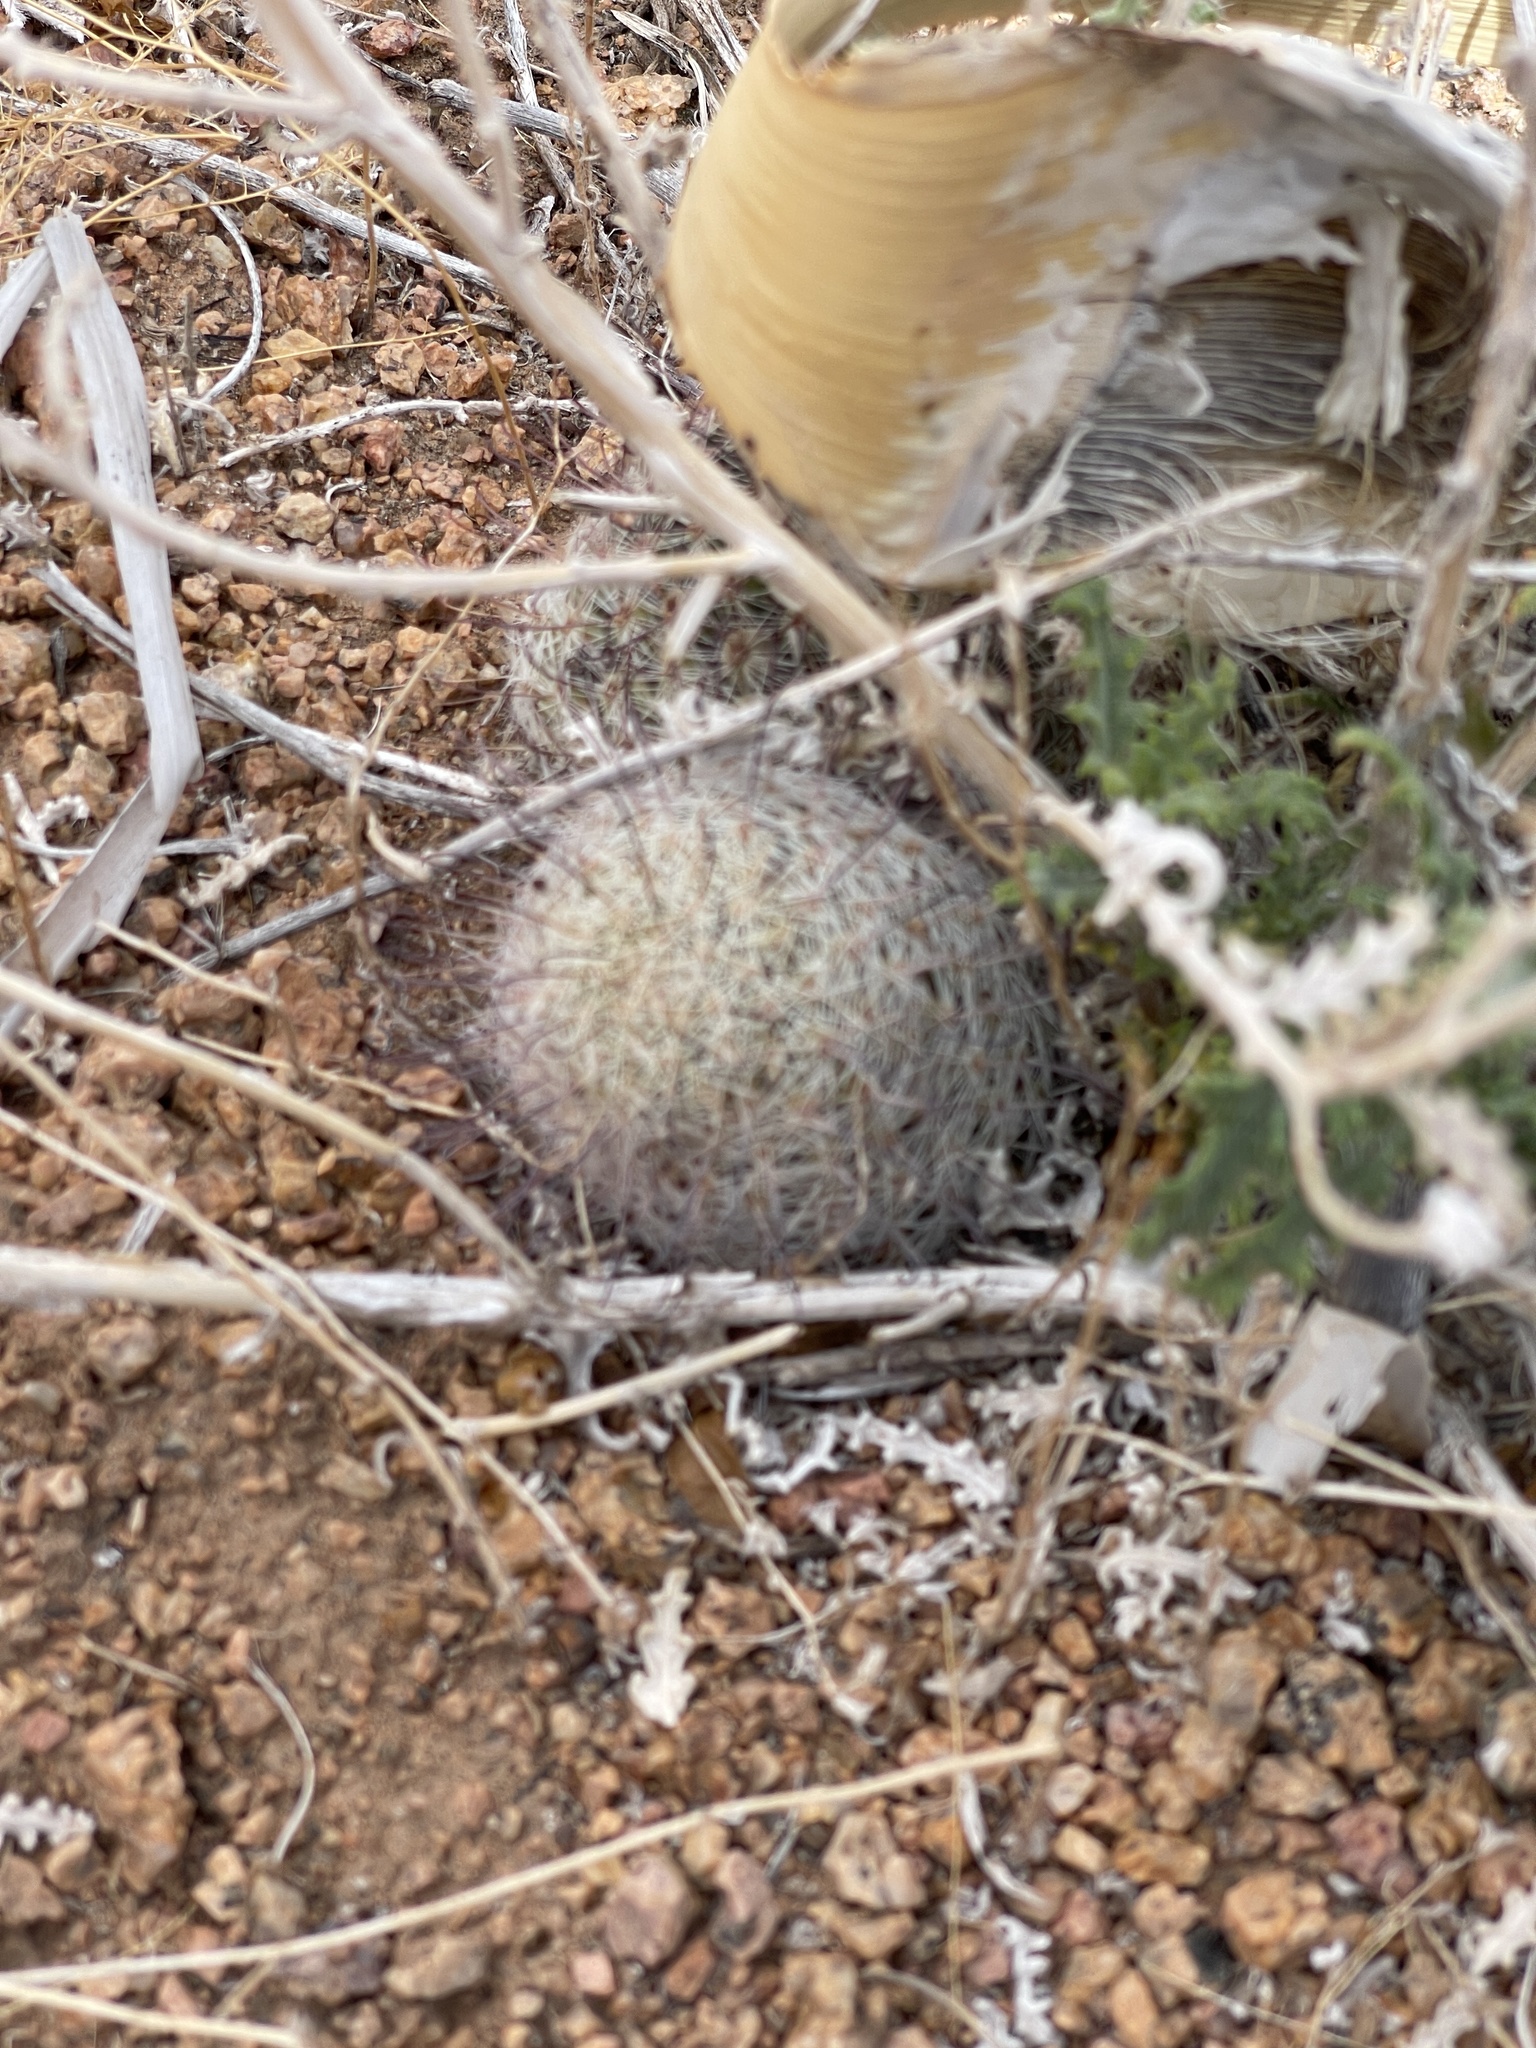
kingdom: Plantae
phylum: Tracheophyta
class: Magnoliopsida
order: Caryophyllales
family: Cactaceae
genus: Cochemiea
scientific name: Cochemiea grahamii
